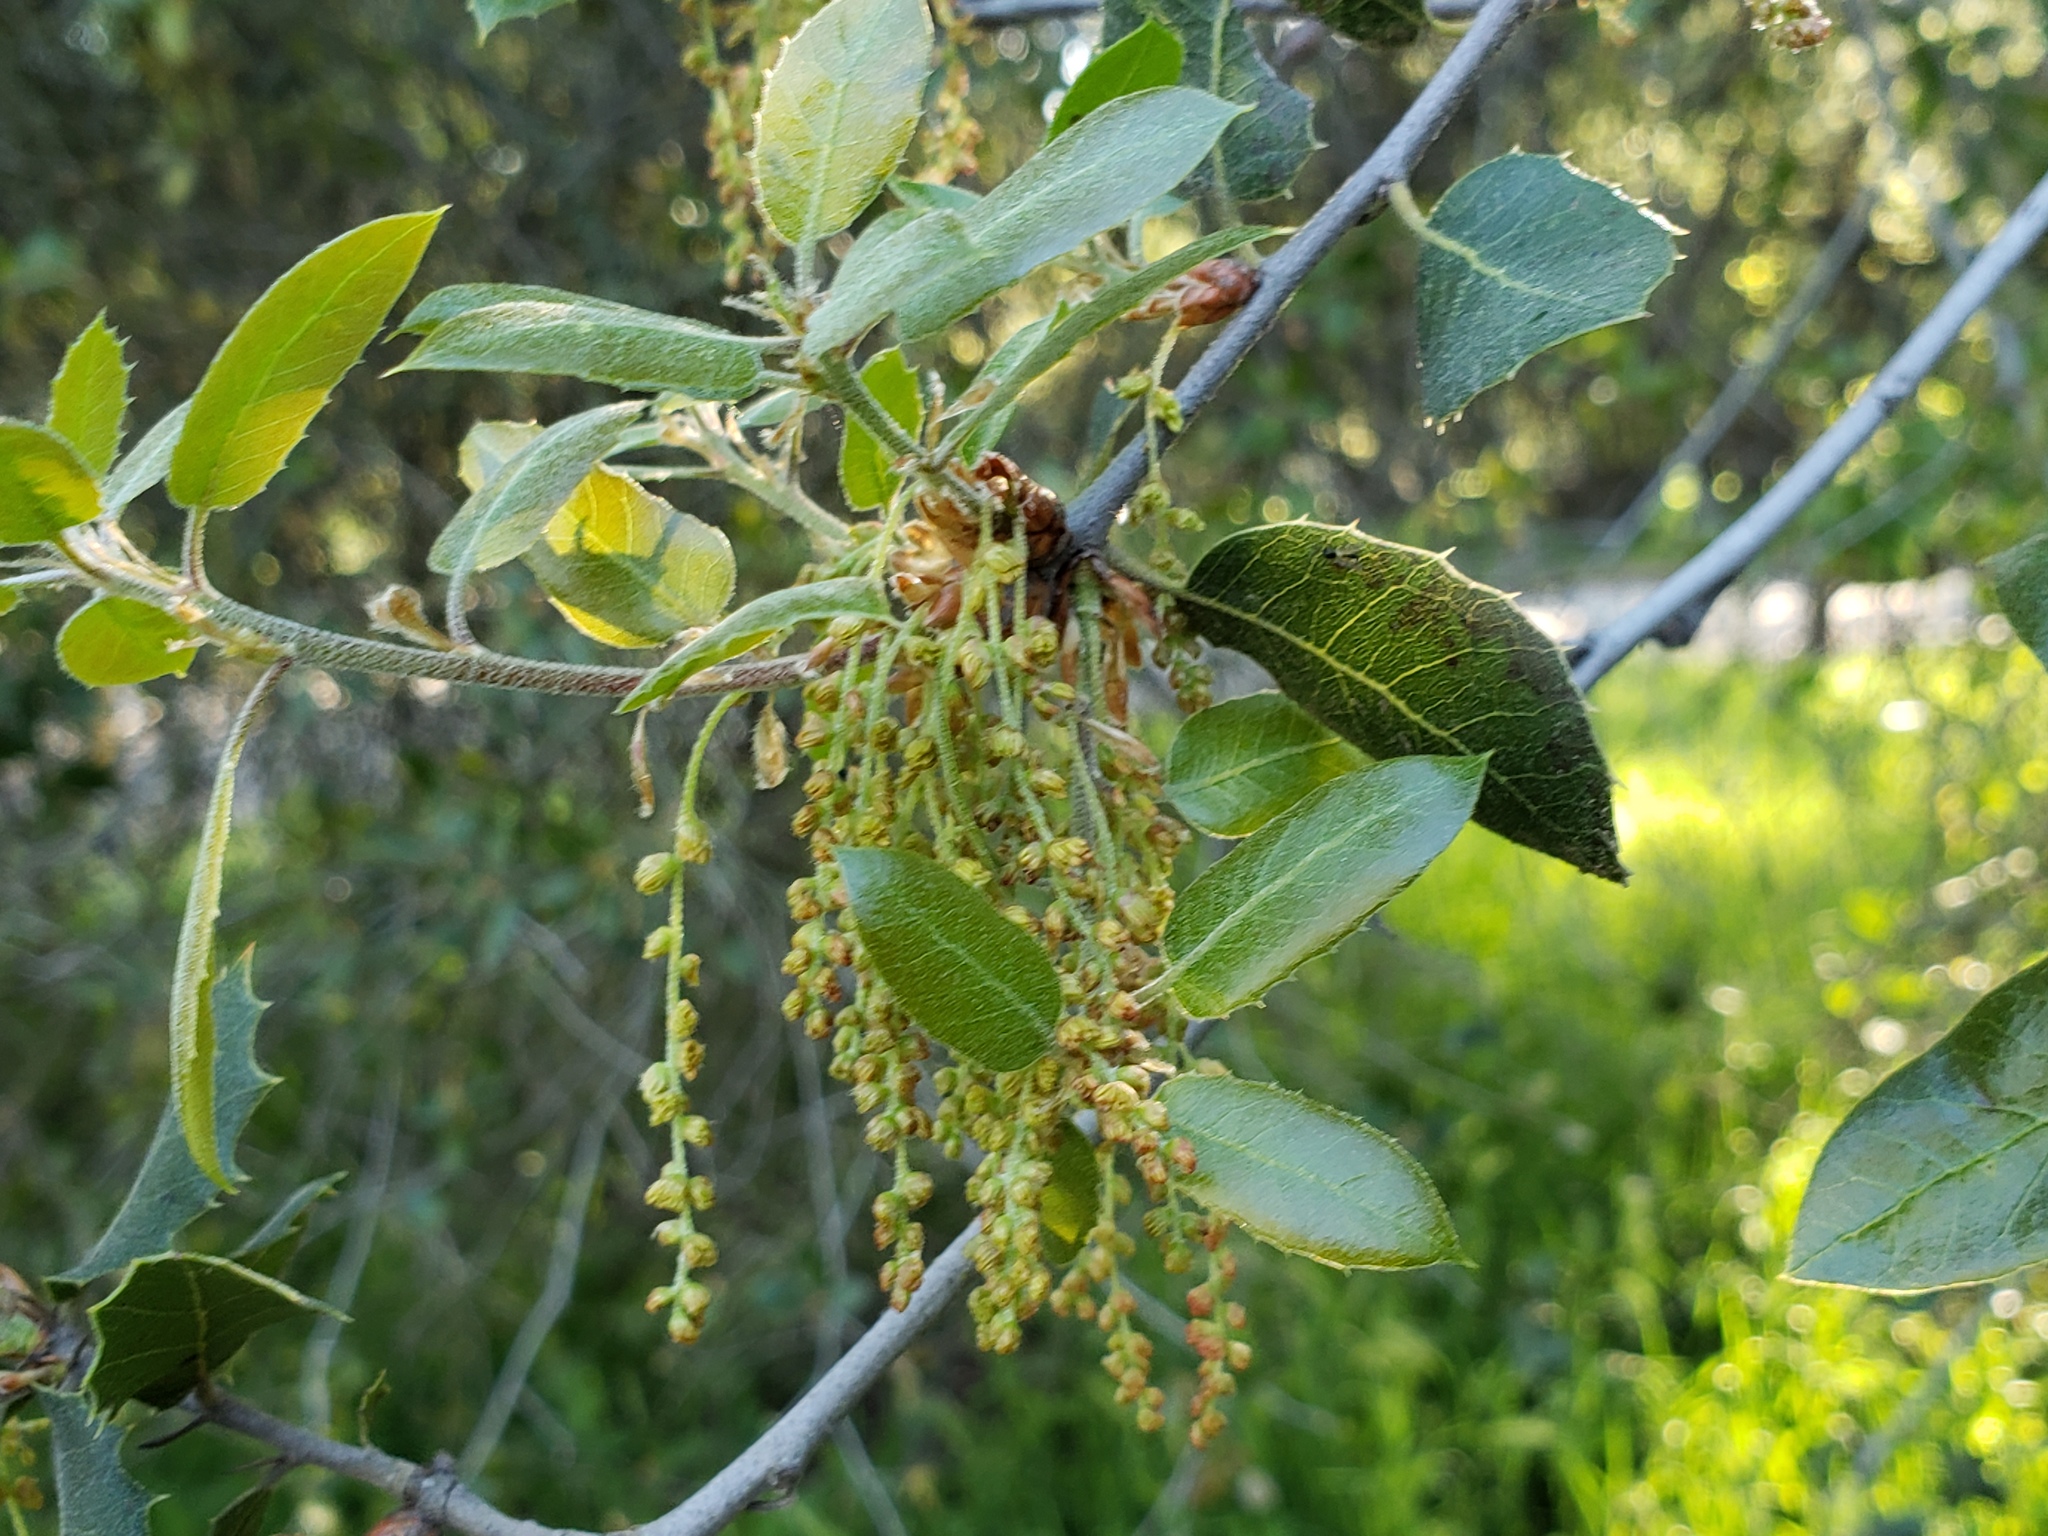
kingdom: Plantae
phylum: Tracheophyta
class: Magnoliopsida
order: Fagales
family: Fagaceae
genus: Quercus
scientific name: Quercus wislizeni
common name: Interior live oak
